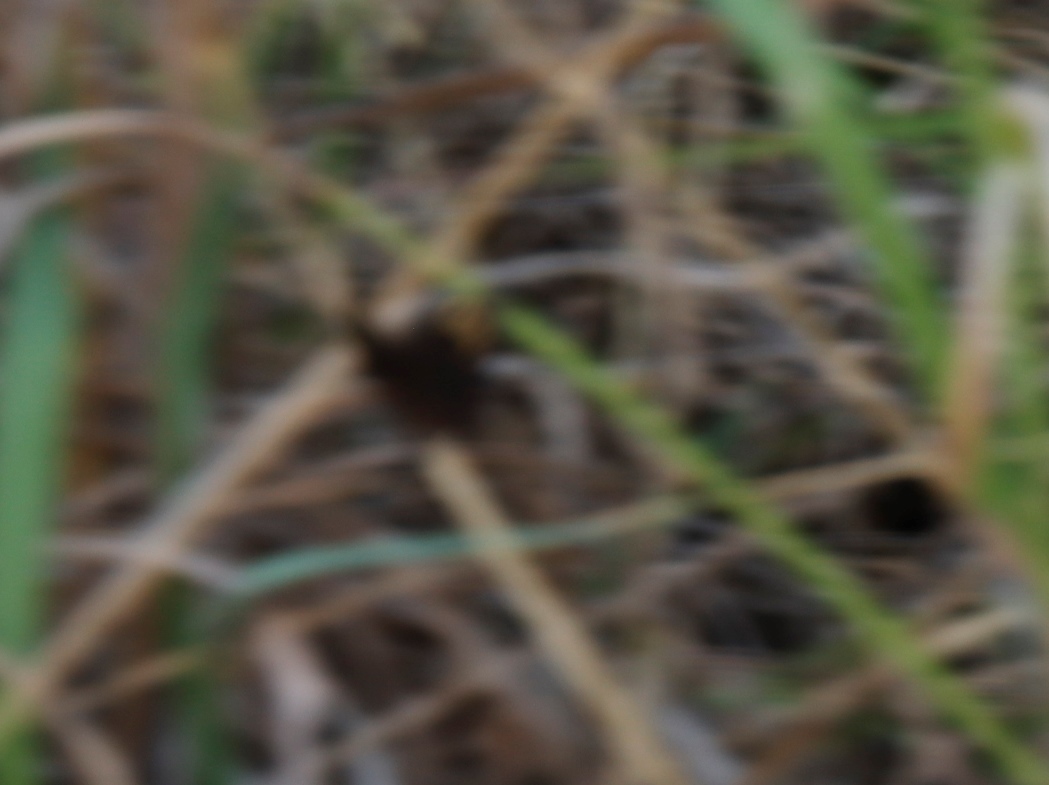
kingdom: Animalia
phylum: Arthropoda
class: Insecta
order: Lepidoptera
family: Nymphalidae
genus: Dira
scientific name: Dira clytus
